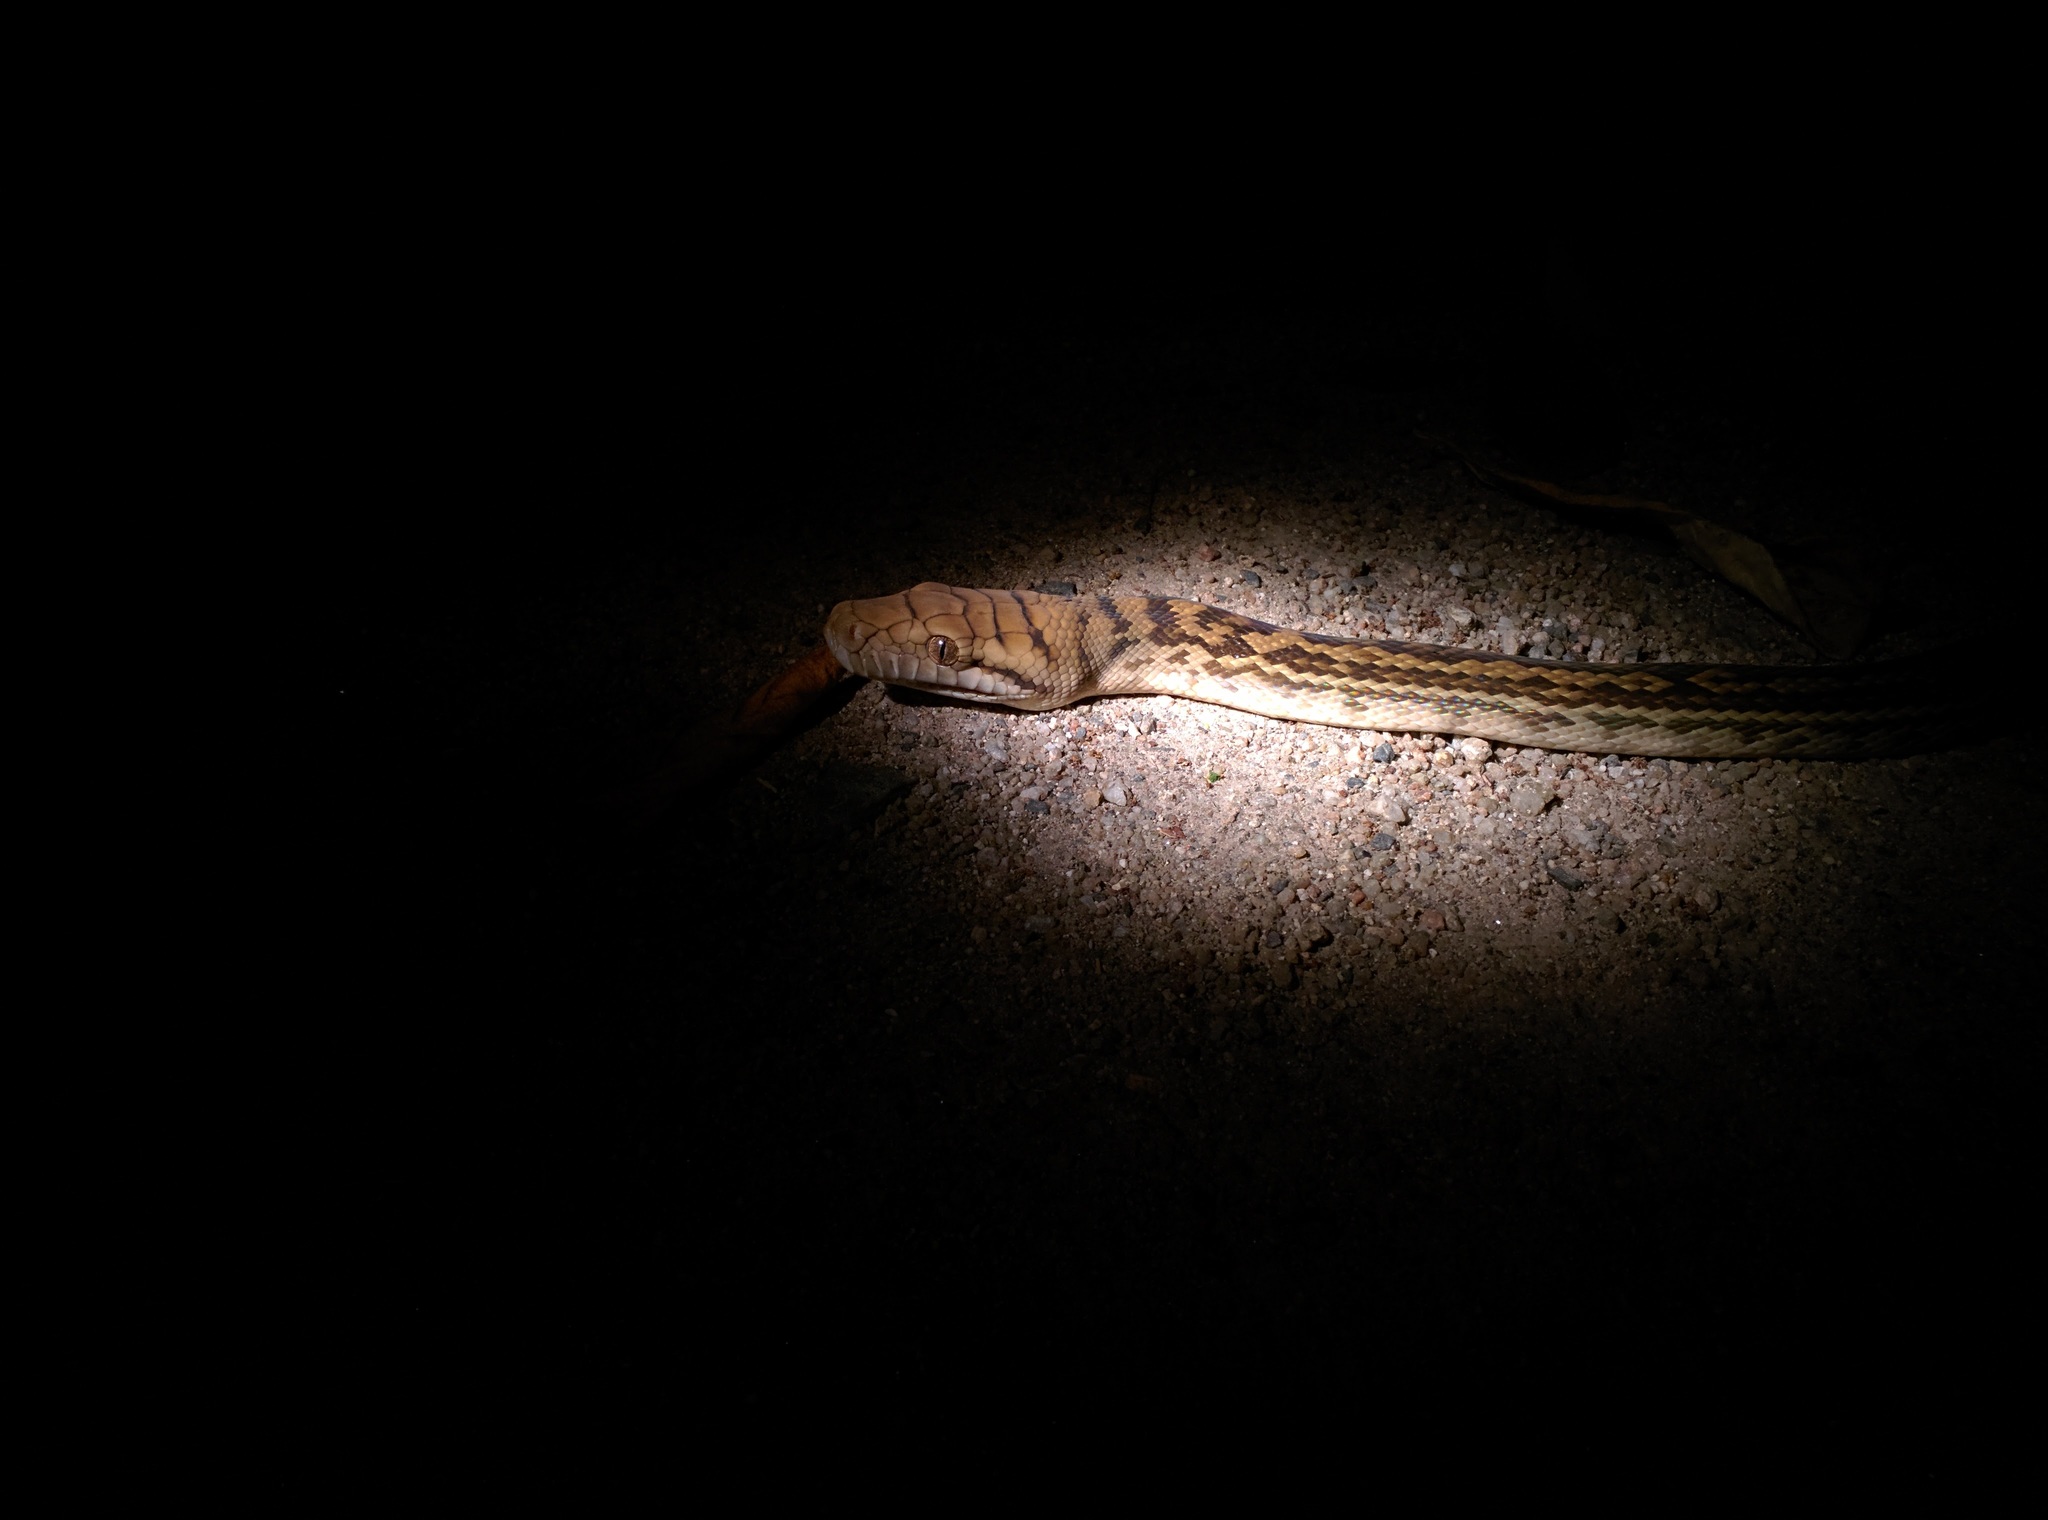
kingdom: Animalia
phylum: Chordata
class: Squamata
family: Pythonidae
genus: Simalia
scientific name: Simalia kinghorni
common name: Scrub python
